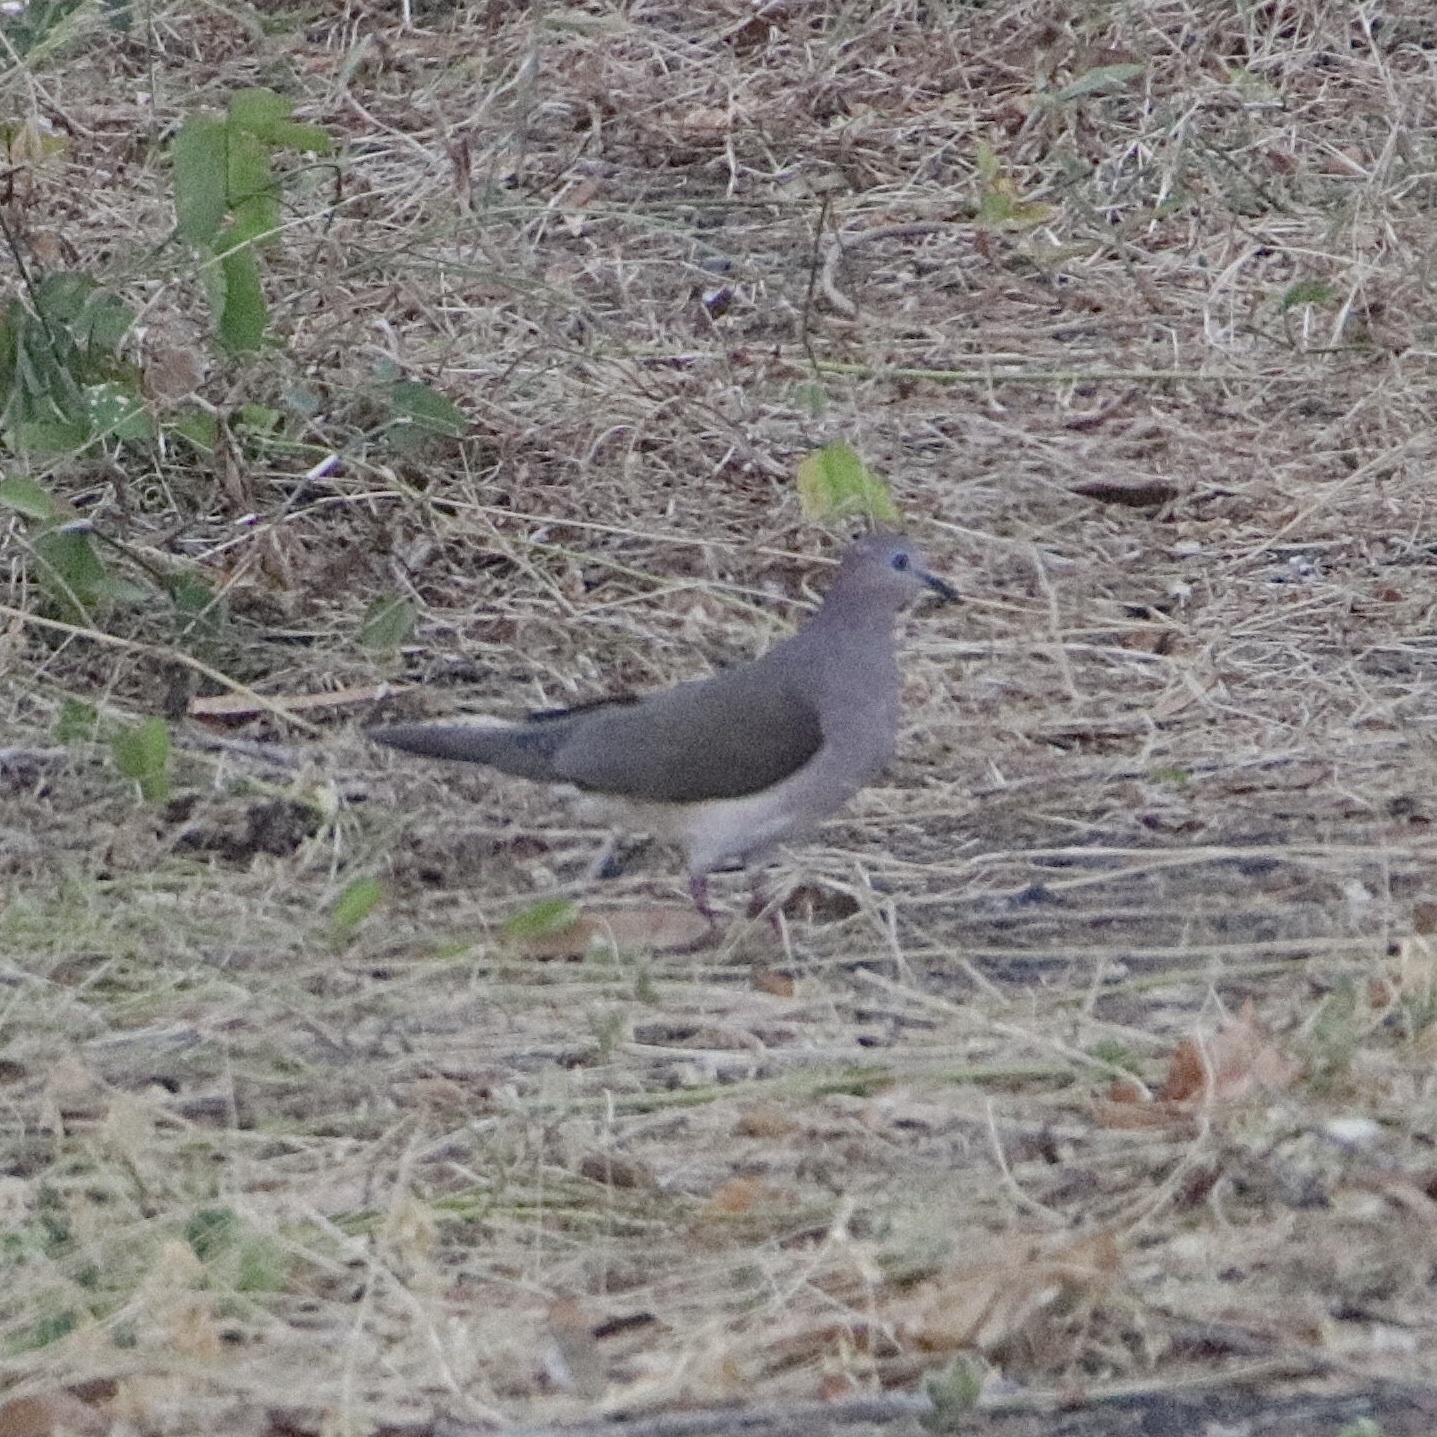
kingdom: Animalia
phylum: Chordata
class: Aves
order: Columbiformes
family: Columbidae
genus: Leptotila
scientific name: Leptotila verreauxi
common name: White-tipped dove
